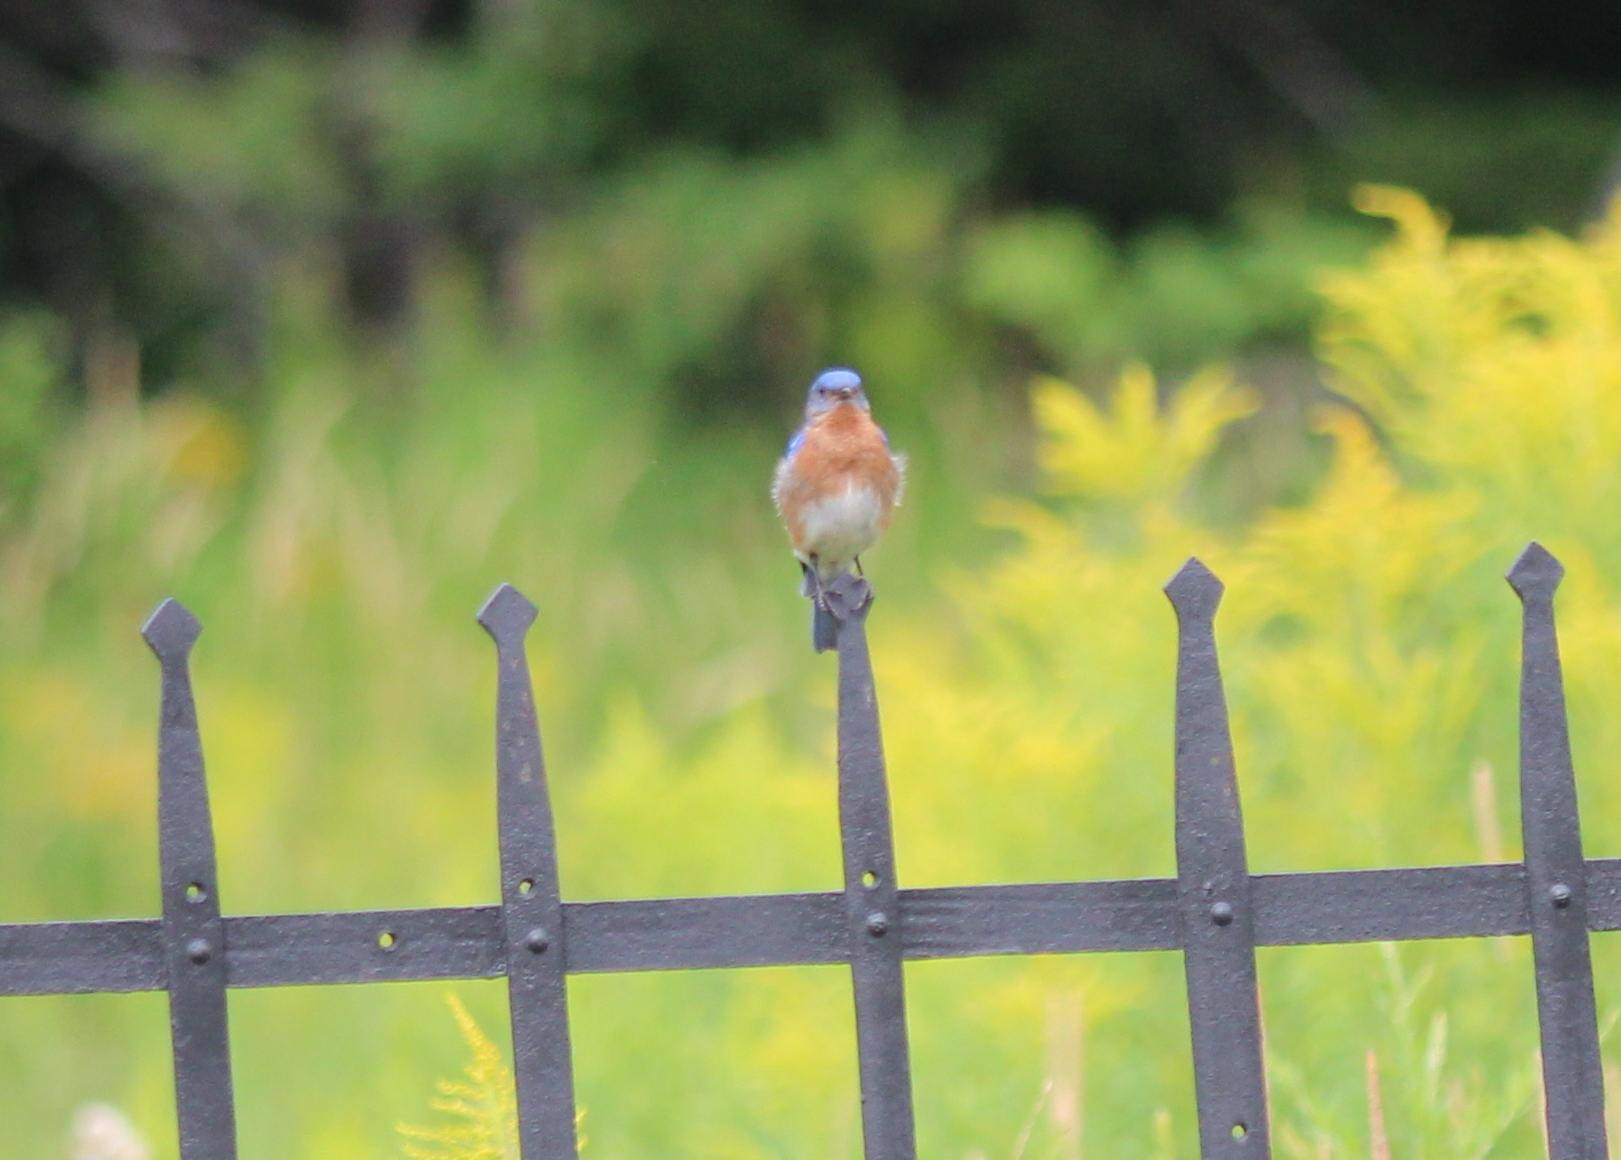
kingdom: Animalia
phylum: Chordata
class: Aves
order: Passeriformes
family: Turdidae
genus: Sialia
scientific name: Sialia sialis
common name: Eastern bluebird
